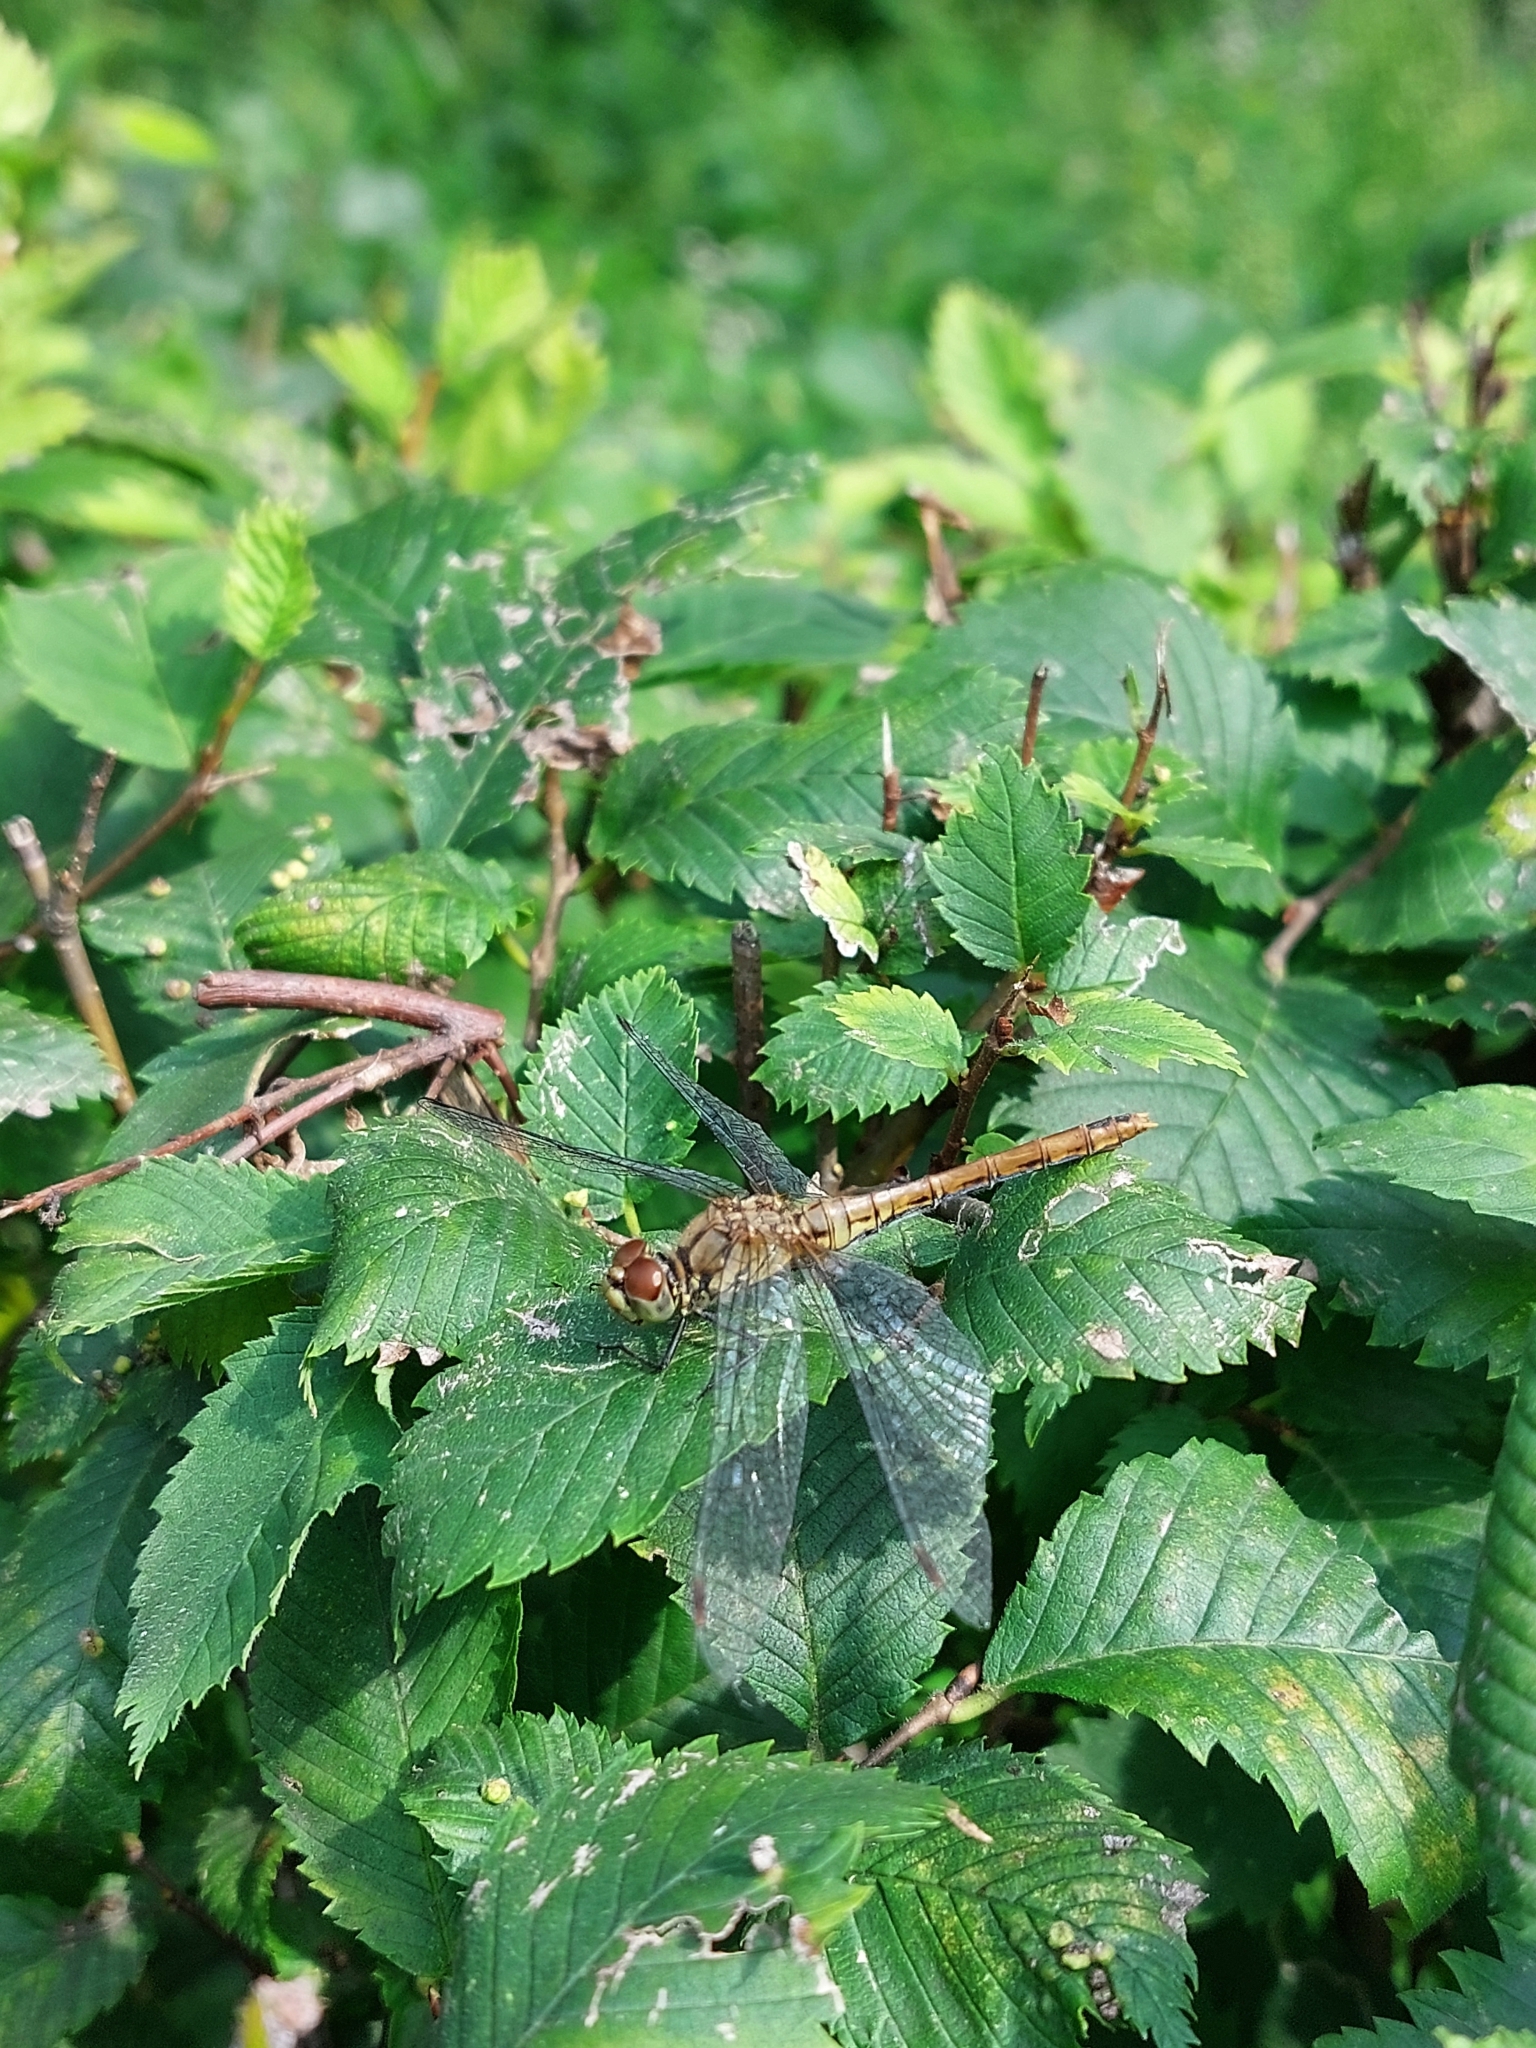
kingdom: Animalia
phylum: Arthropoda
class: Insecta
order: Odonata
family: Libellulidae
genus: Sympetrum
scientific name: Sympetrum sanguineum
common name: Ruddy darter
